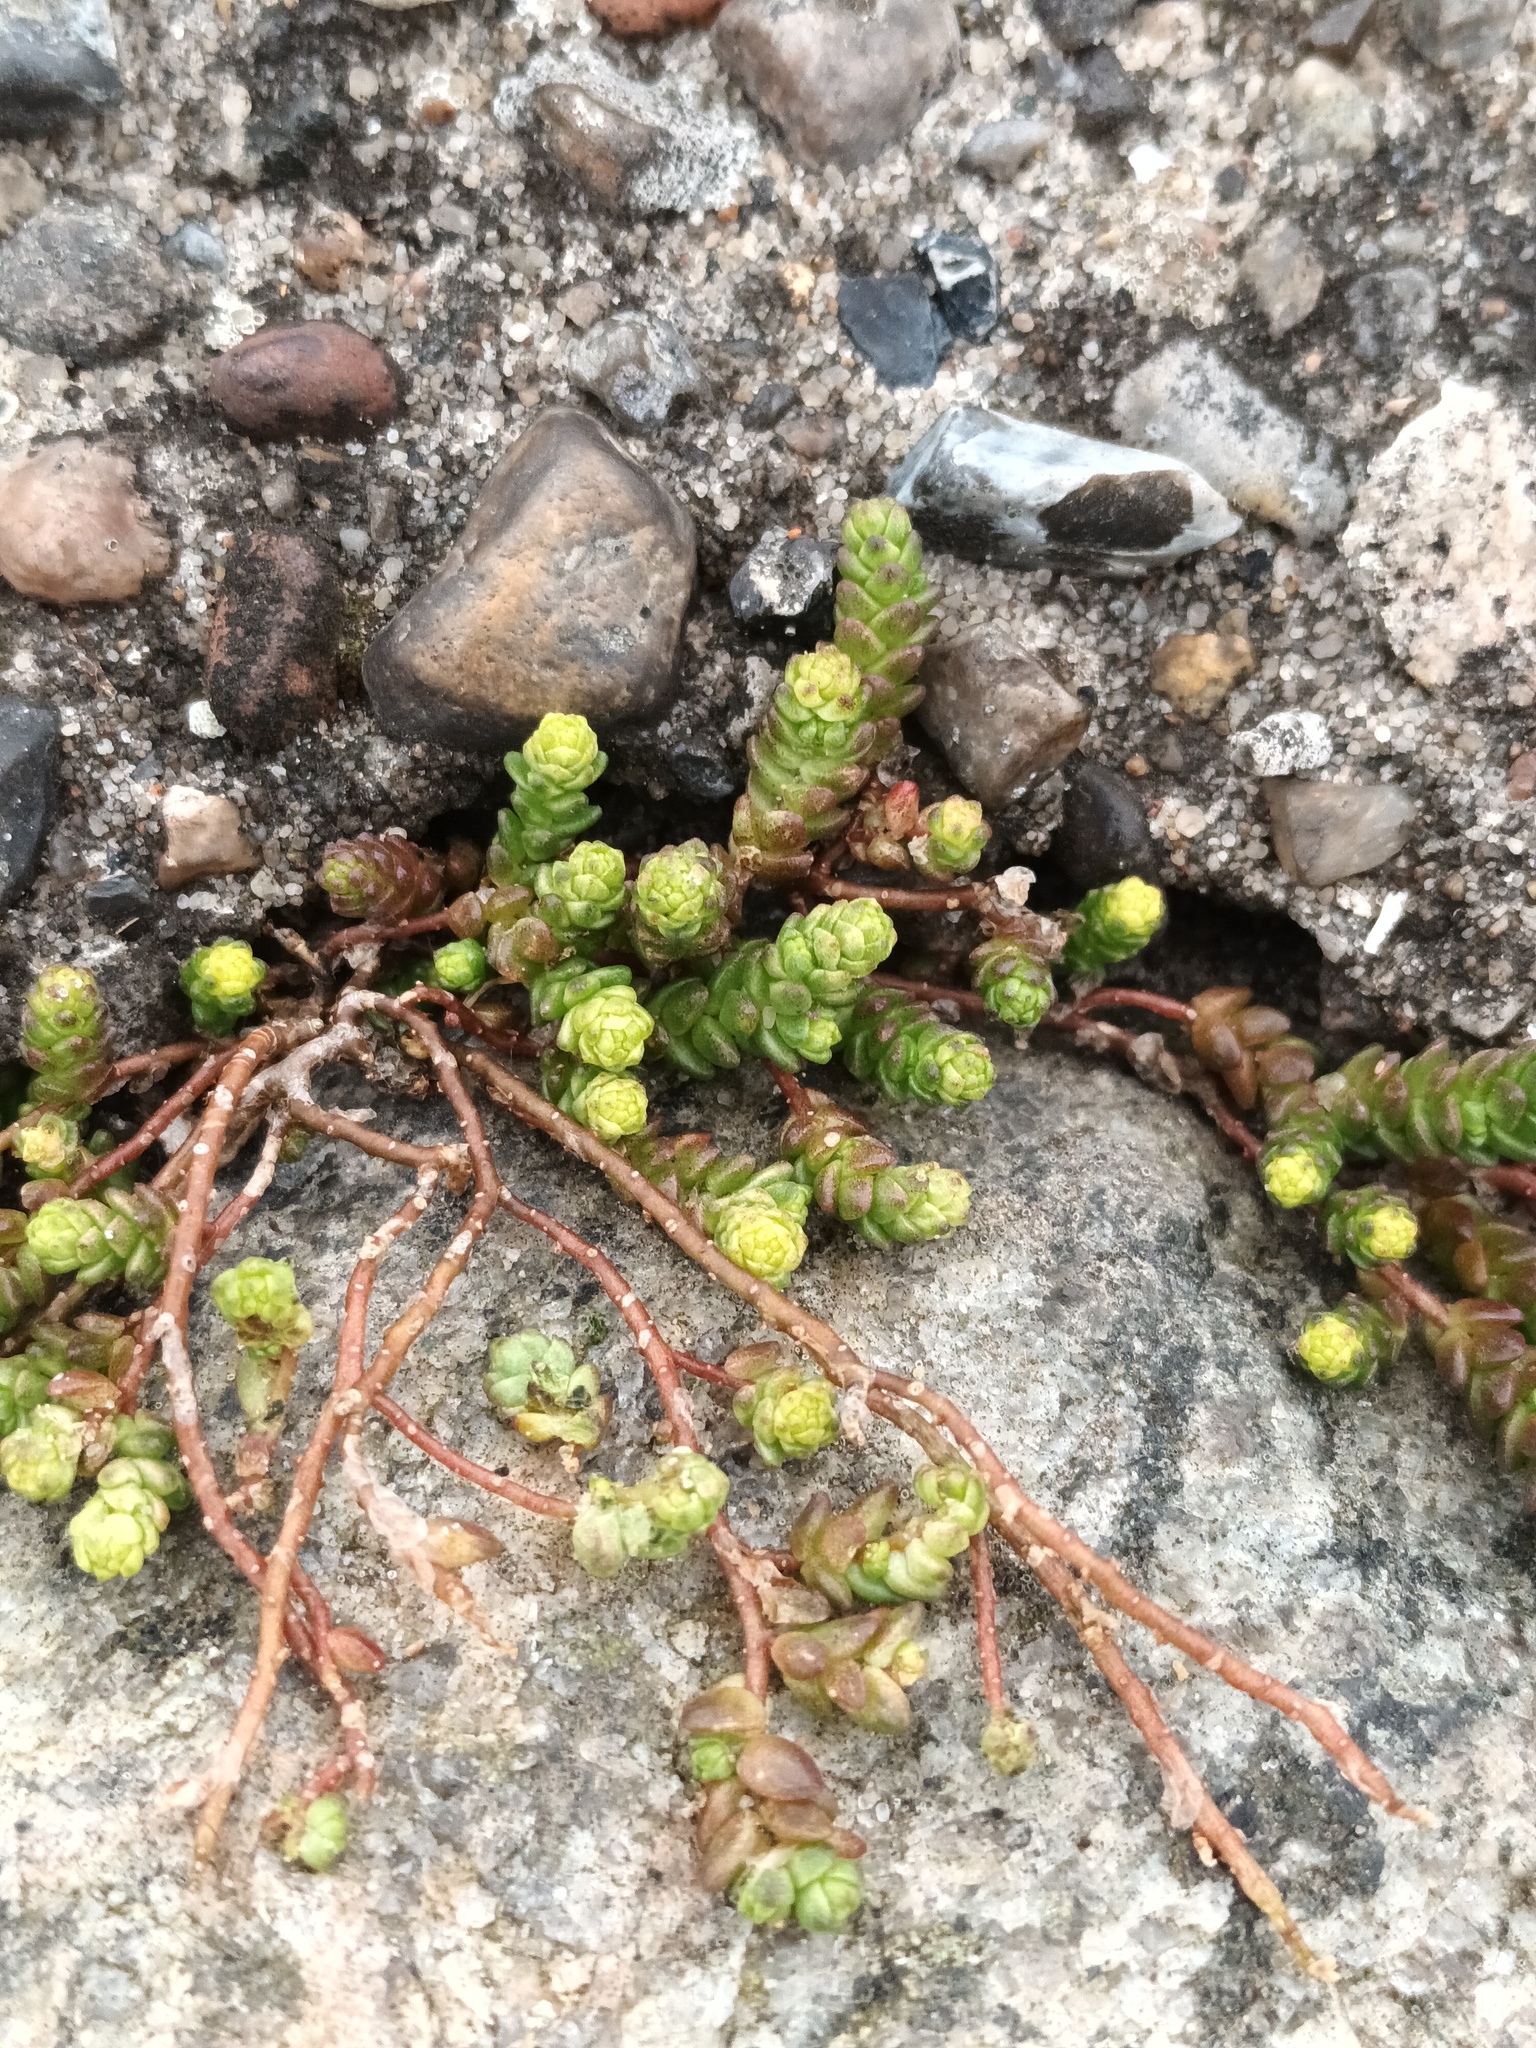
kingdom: Plantae
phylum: Tracheophyta
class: Magnoliopsida
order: Saxifragales
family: Crassulaceae
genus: Sedum
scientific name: Sedum acre
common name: Biting stonecrop
